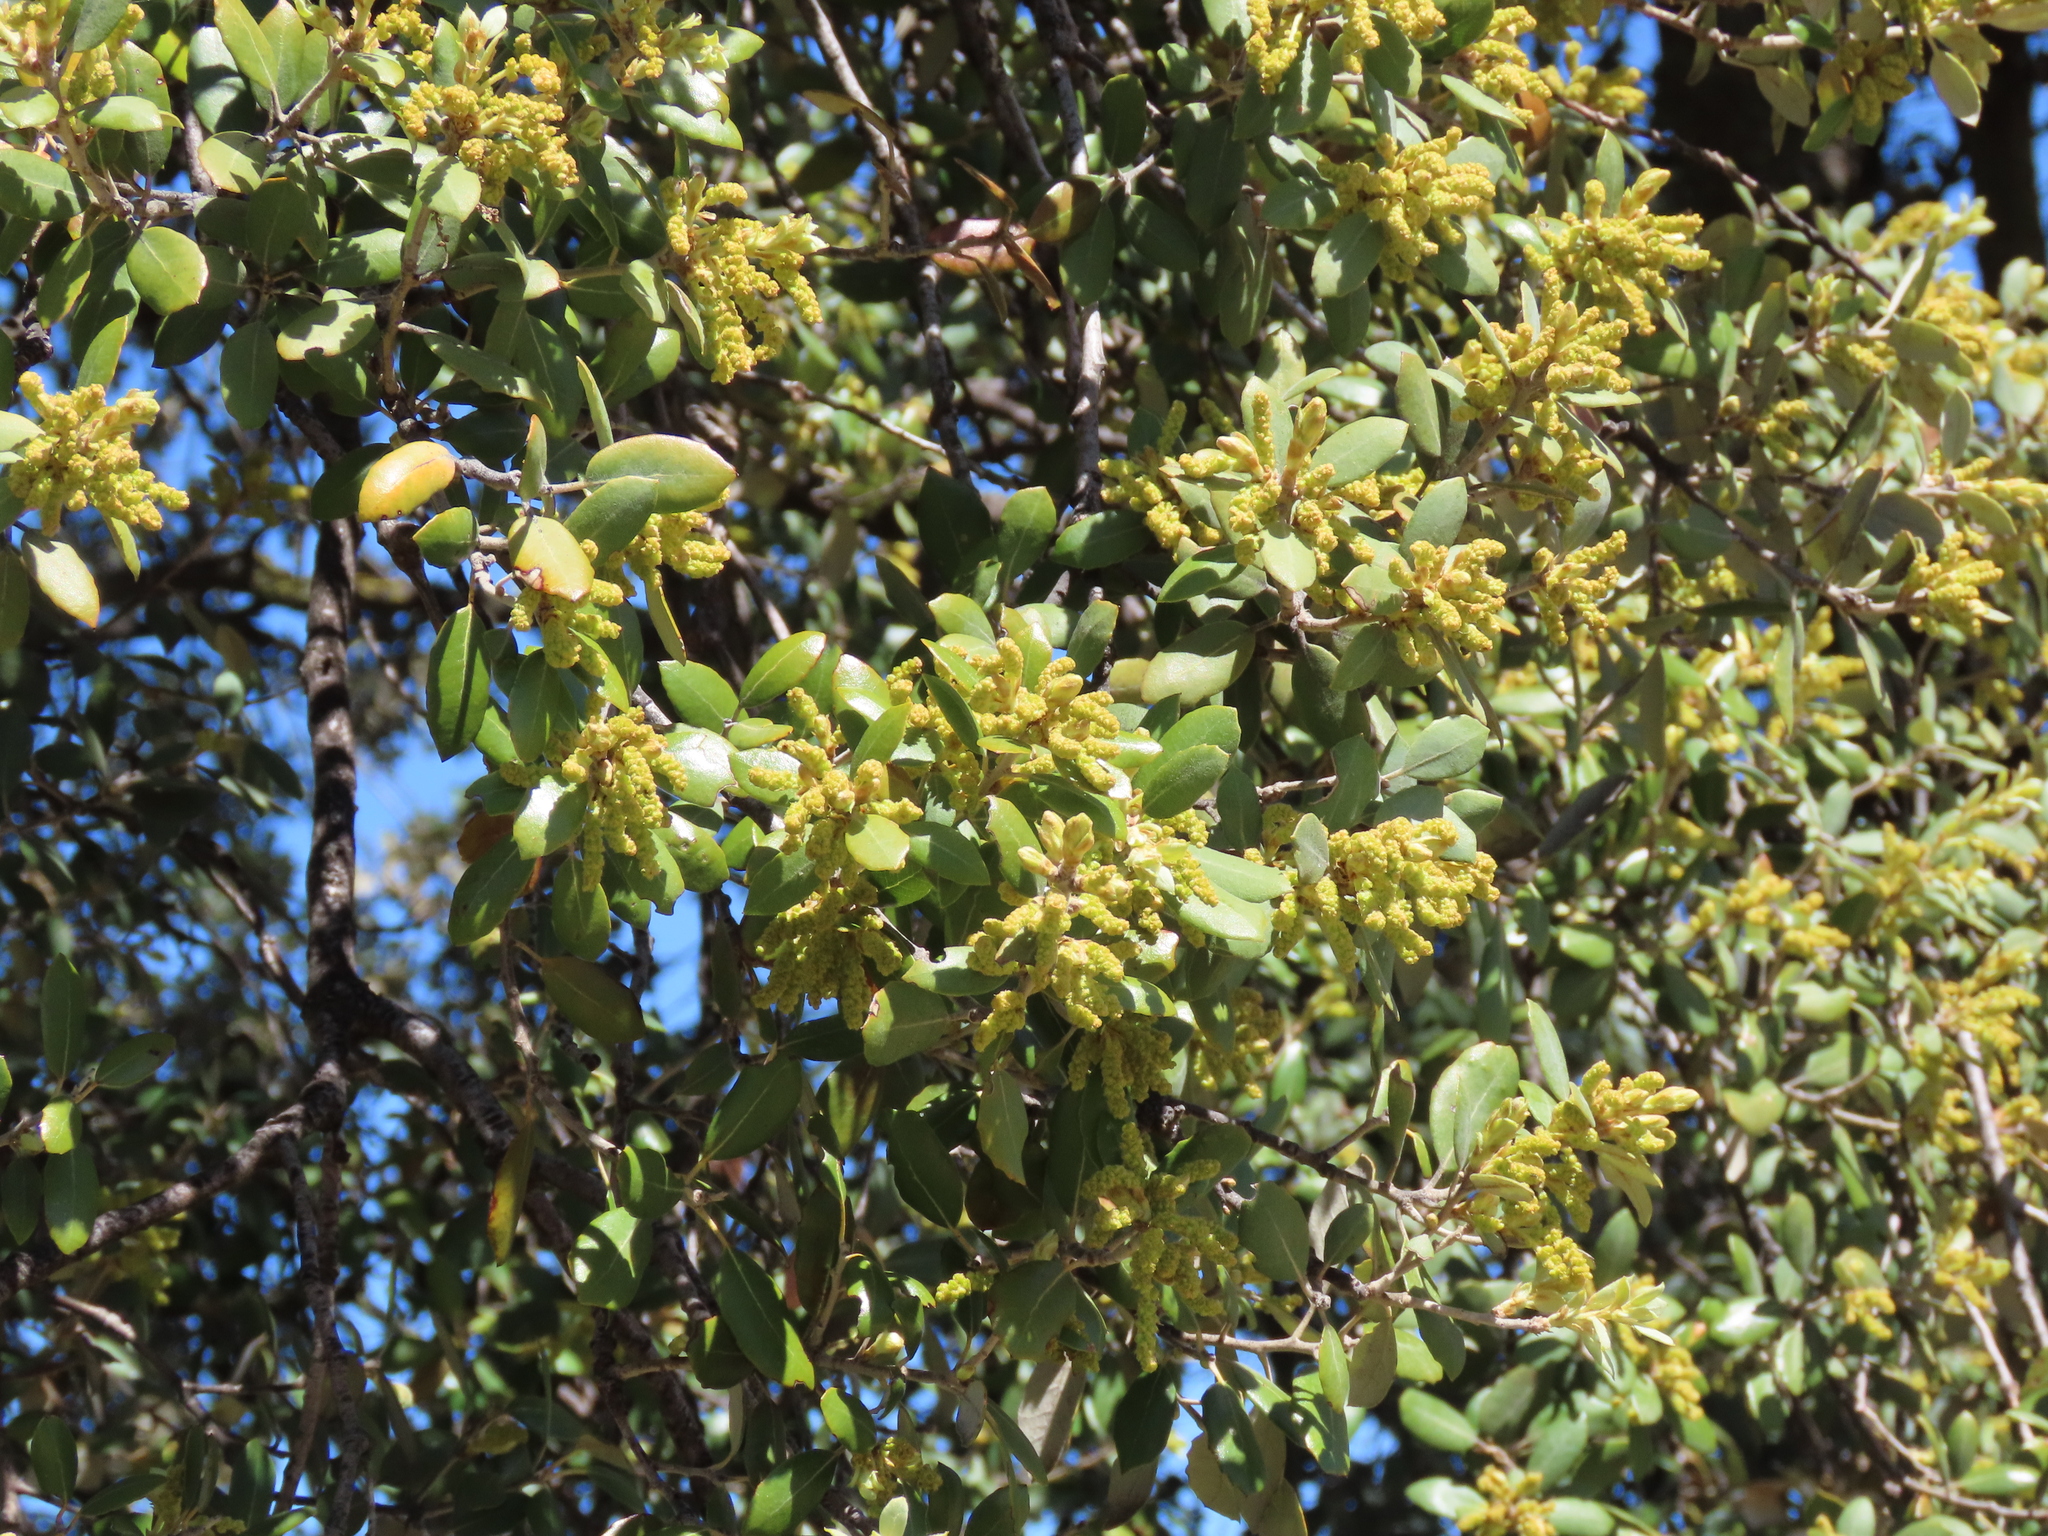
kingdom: Plantae
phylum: Tracheophyta
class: Magnoliopsida
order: Fagales
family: Fagaceae
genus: Quercus
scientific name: Quercus rotundifolia
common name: Holm oak
